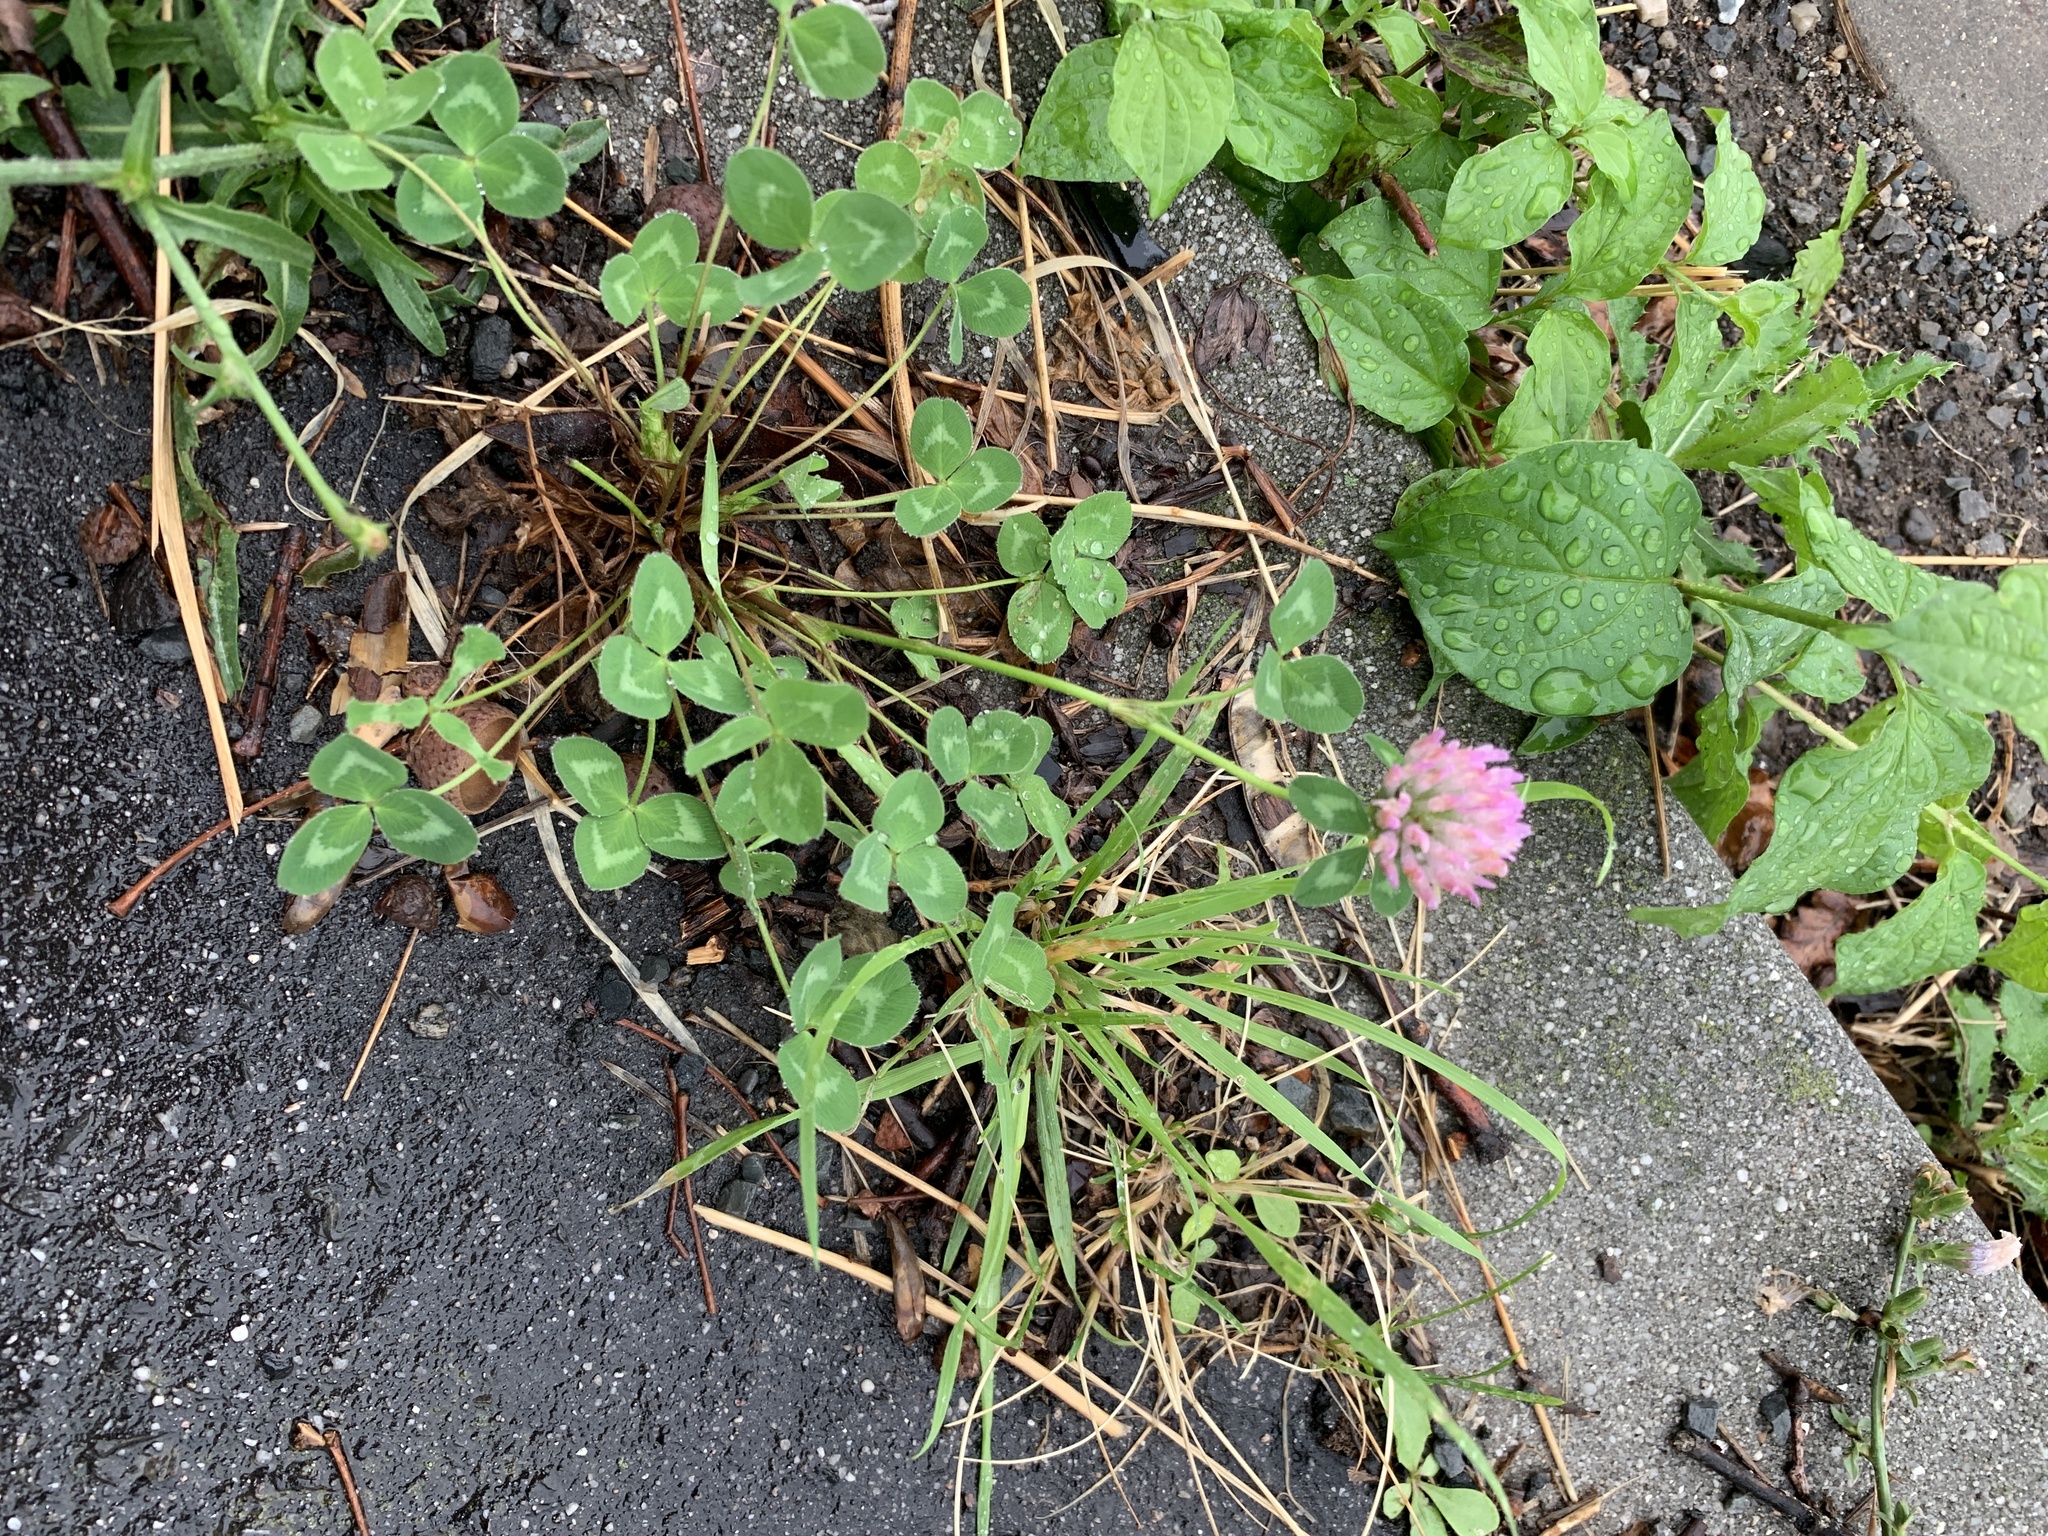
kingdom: Plantae
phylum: Tracheophyta
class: Magnoliopsida
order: Fabales
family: Fabaceae
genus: Trifolium
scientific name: Trifolium pratense
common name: Red clover
